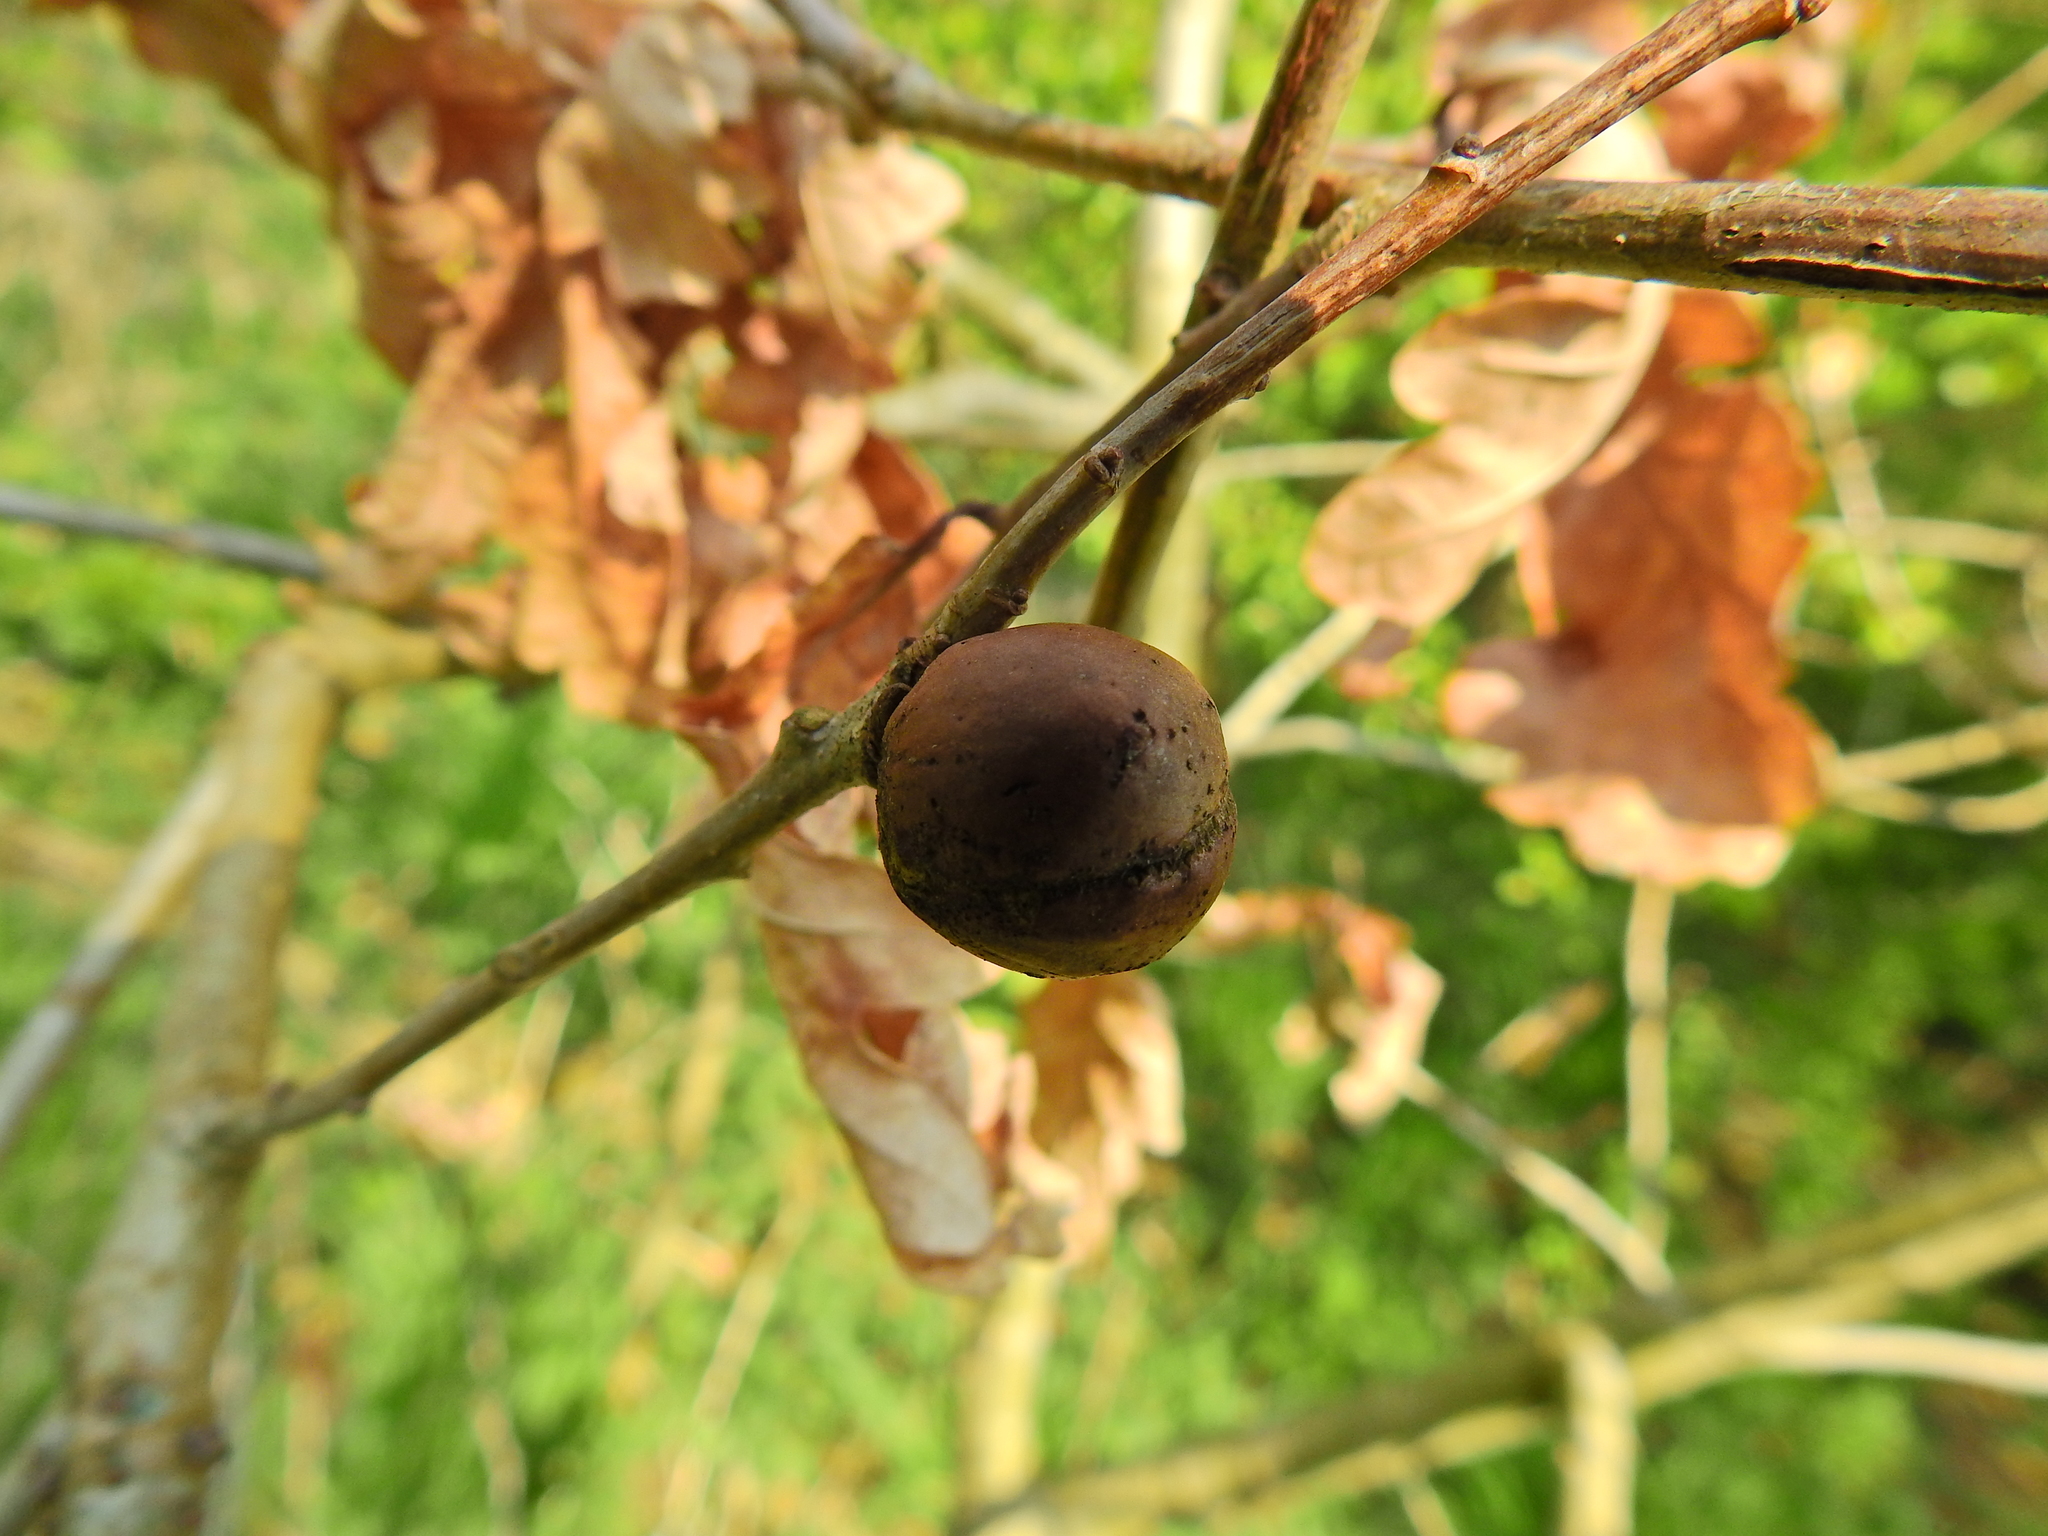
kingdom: Animalia
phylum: Arthropoda
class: Insecta
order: Hymenoptera
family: Cynipidae
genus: Andricus
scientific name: Andricus kollari
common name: Marble gall
